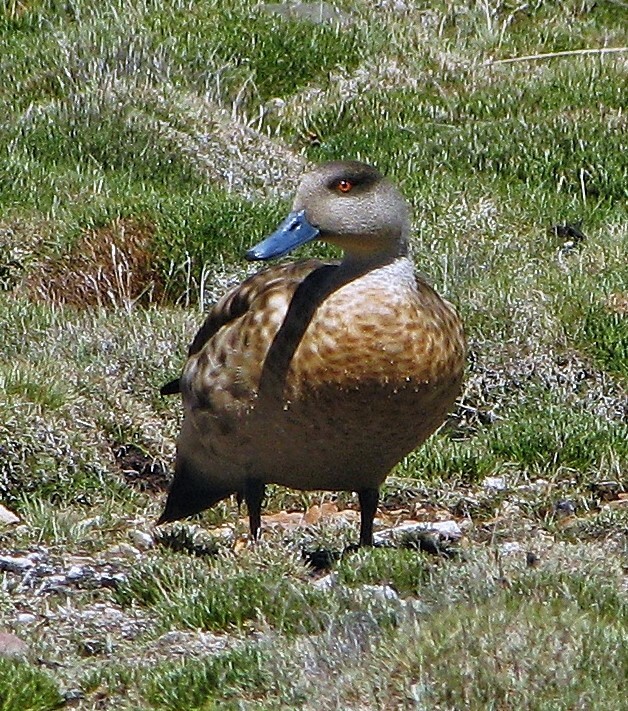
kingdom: Animalia
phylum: Chordata
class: Aves
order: Anseriformes
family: Anatidae
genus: Lophonetta
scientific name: Lophonetta specularioides
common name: Crested duck
